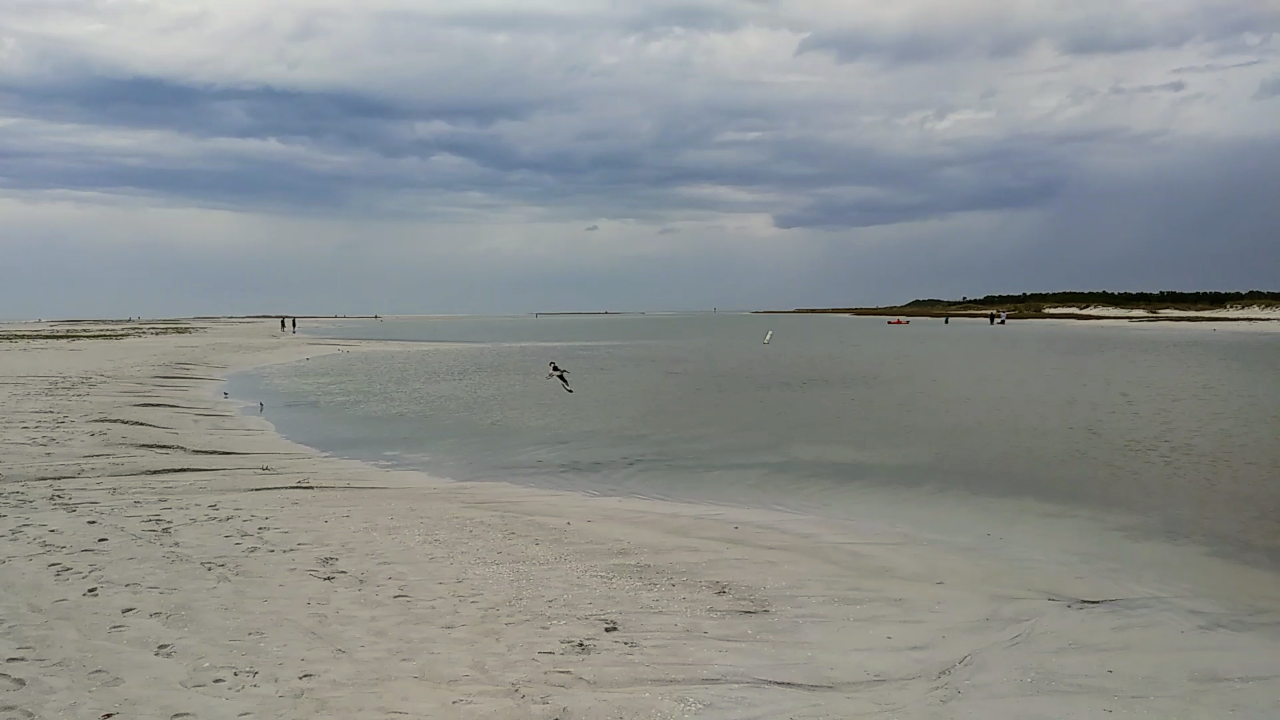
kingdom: Animalia
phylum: Chordata
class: Aves
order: Charadriiformes
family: Scolopacidae
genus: Tringa
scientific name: Tringa semipalmata
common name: Willet
